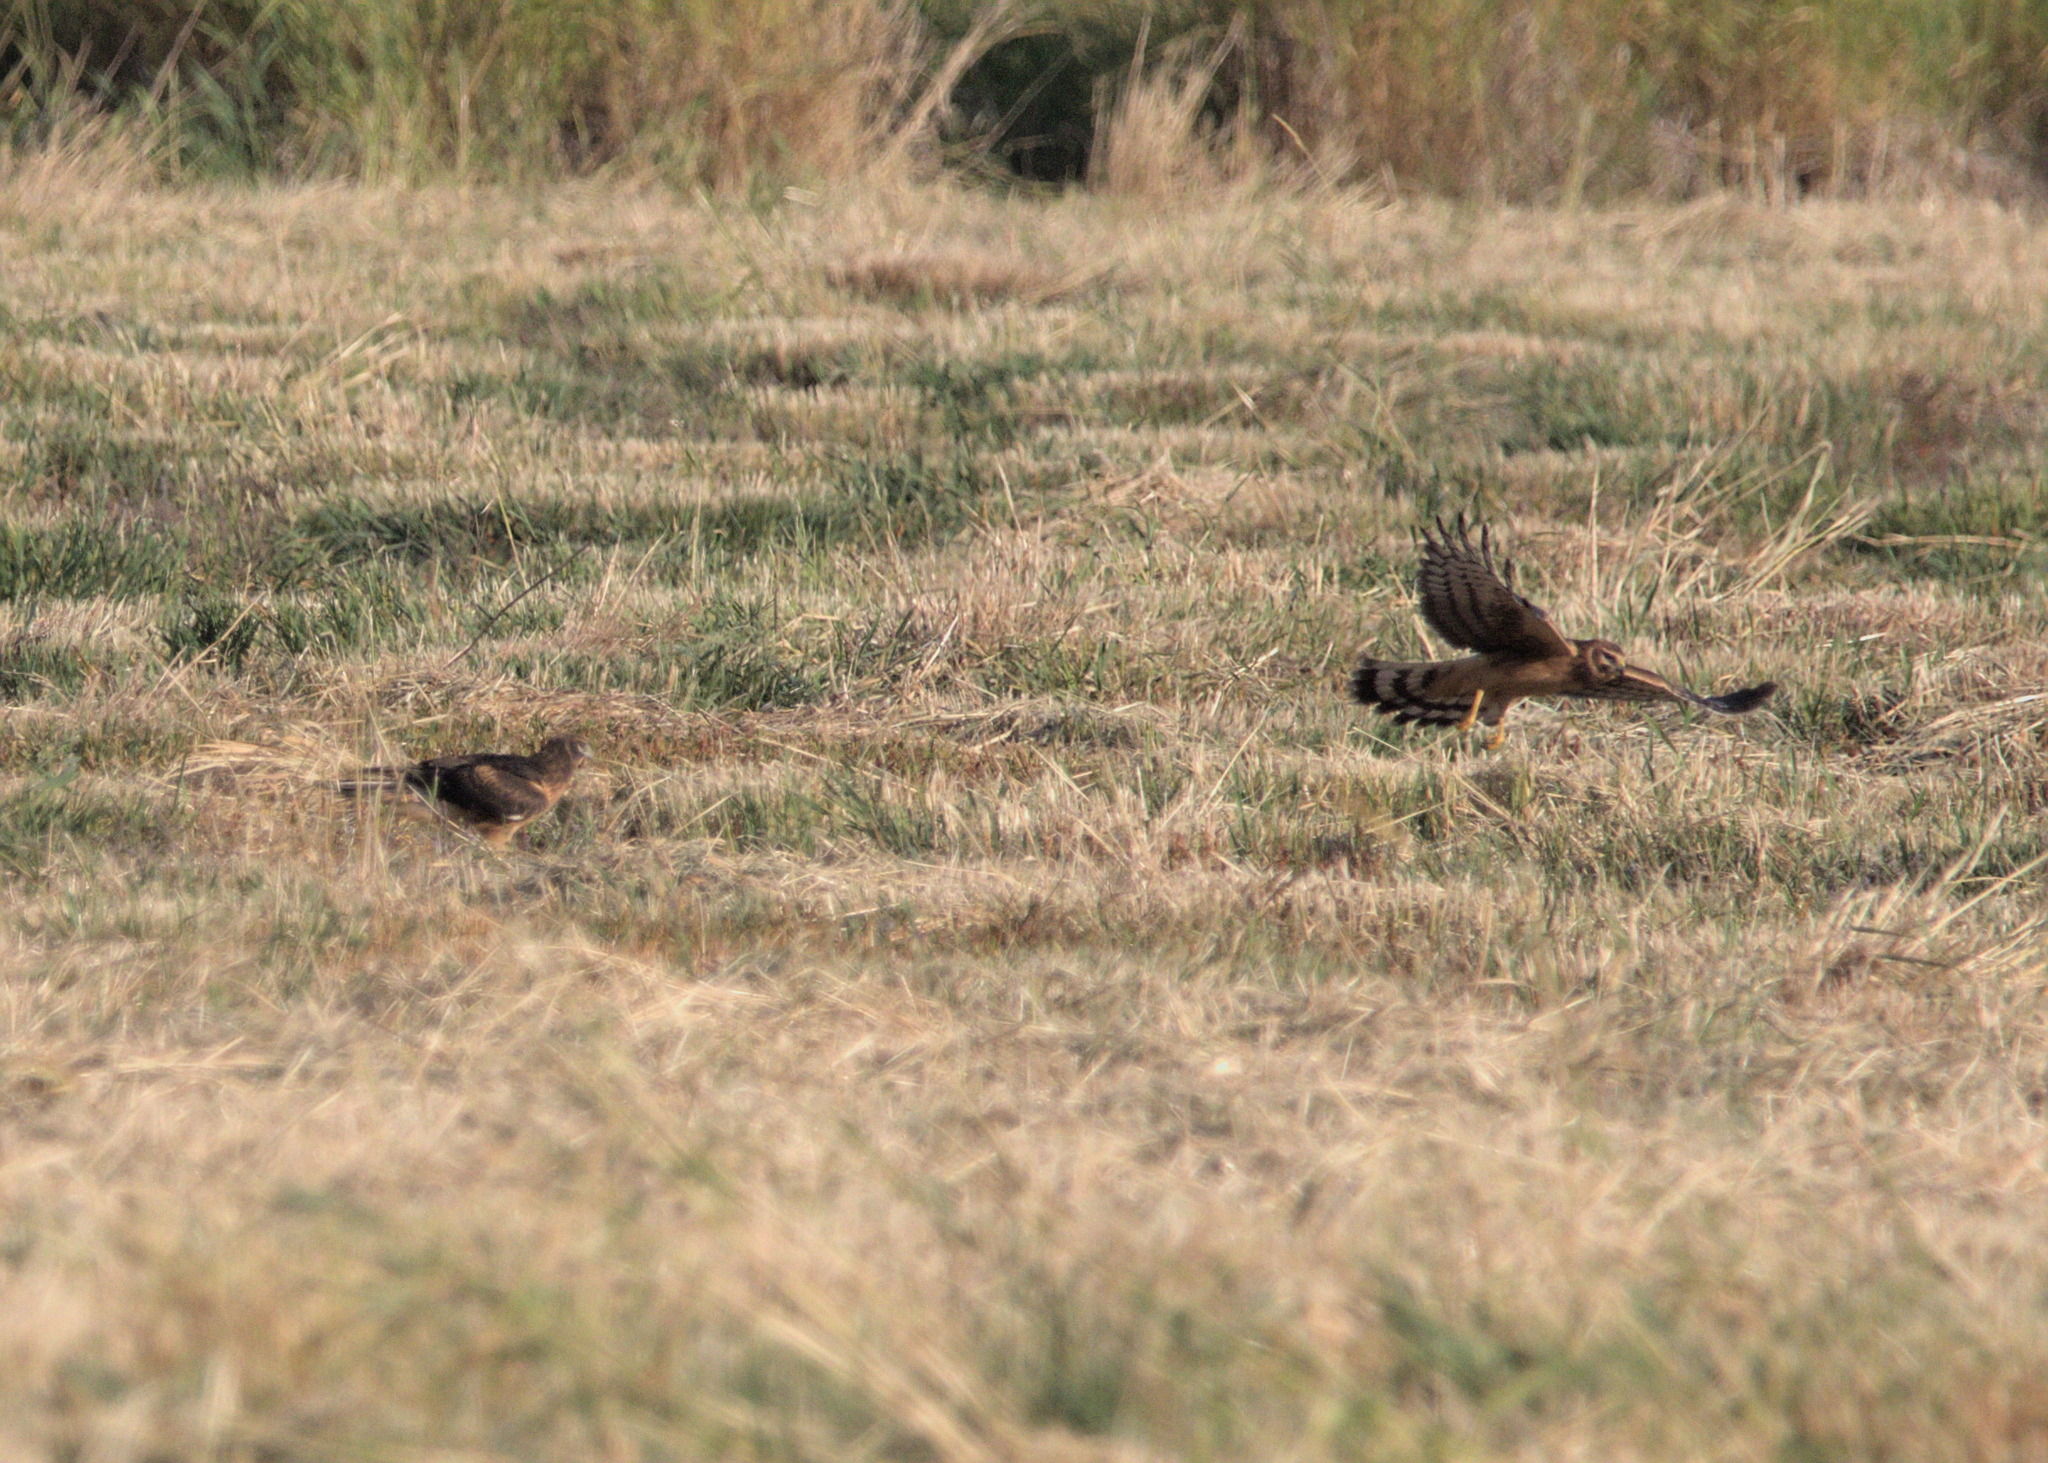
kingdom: Animalia
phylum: Chordata
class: Aves
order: Accipitriformes
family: Accipitridae
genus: Circus
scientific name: Circus cyaneus
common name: Hen harrier
